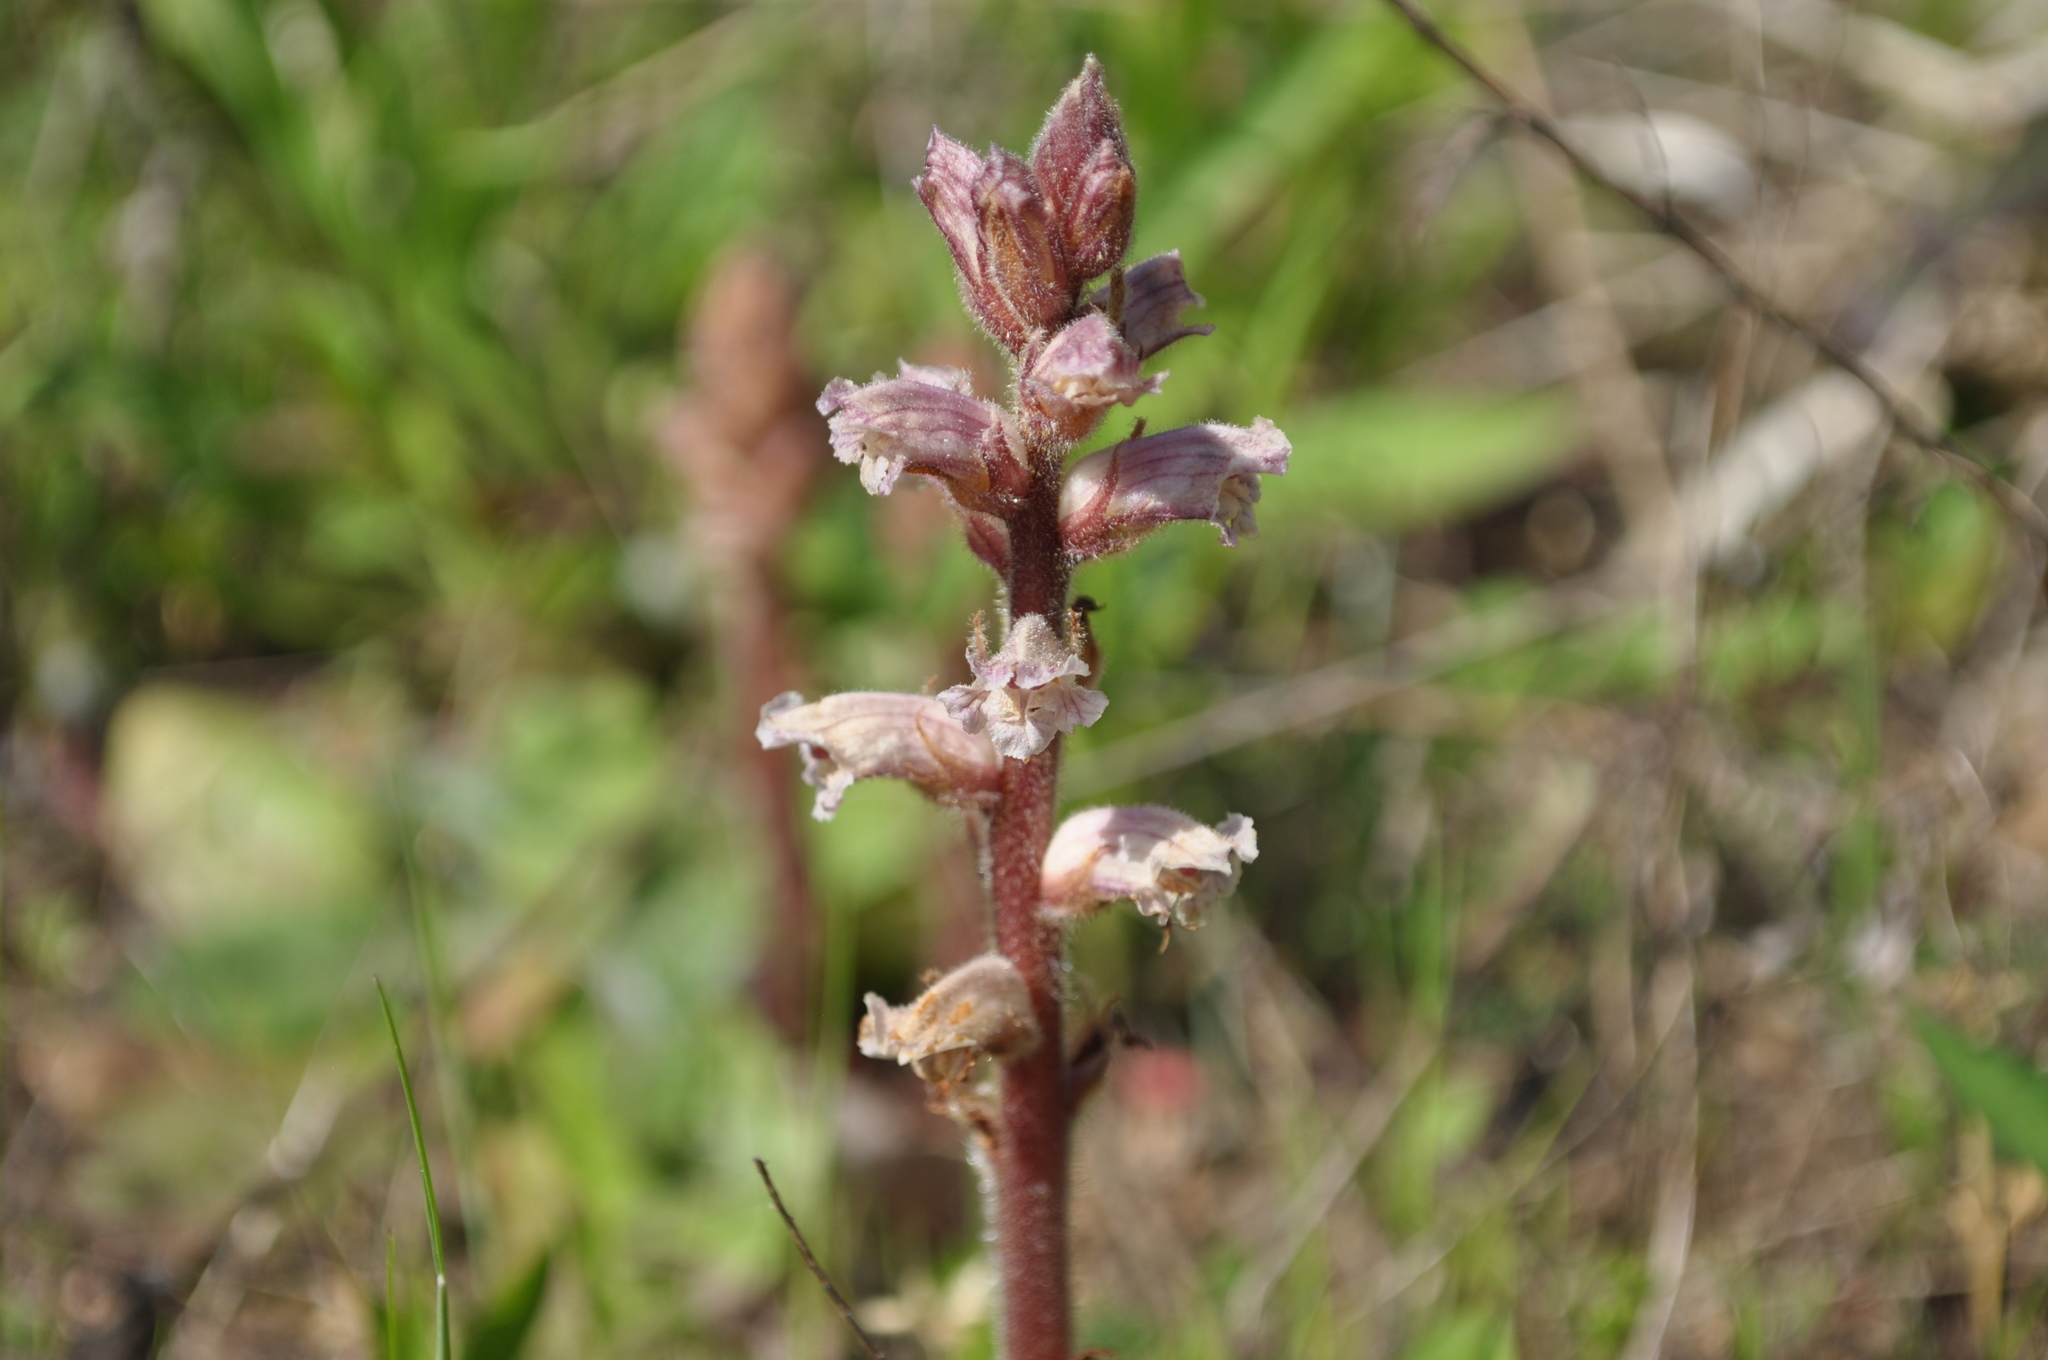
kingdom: Plantae
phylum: Tracheophyta
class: Magnoliopsida
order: Lamiales
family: Orobanchaceae
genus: Orobanche
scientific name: Orobanche minor
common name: Common broomrape
